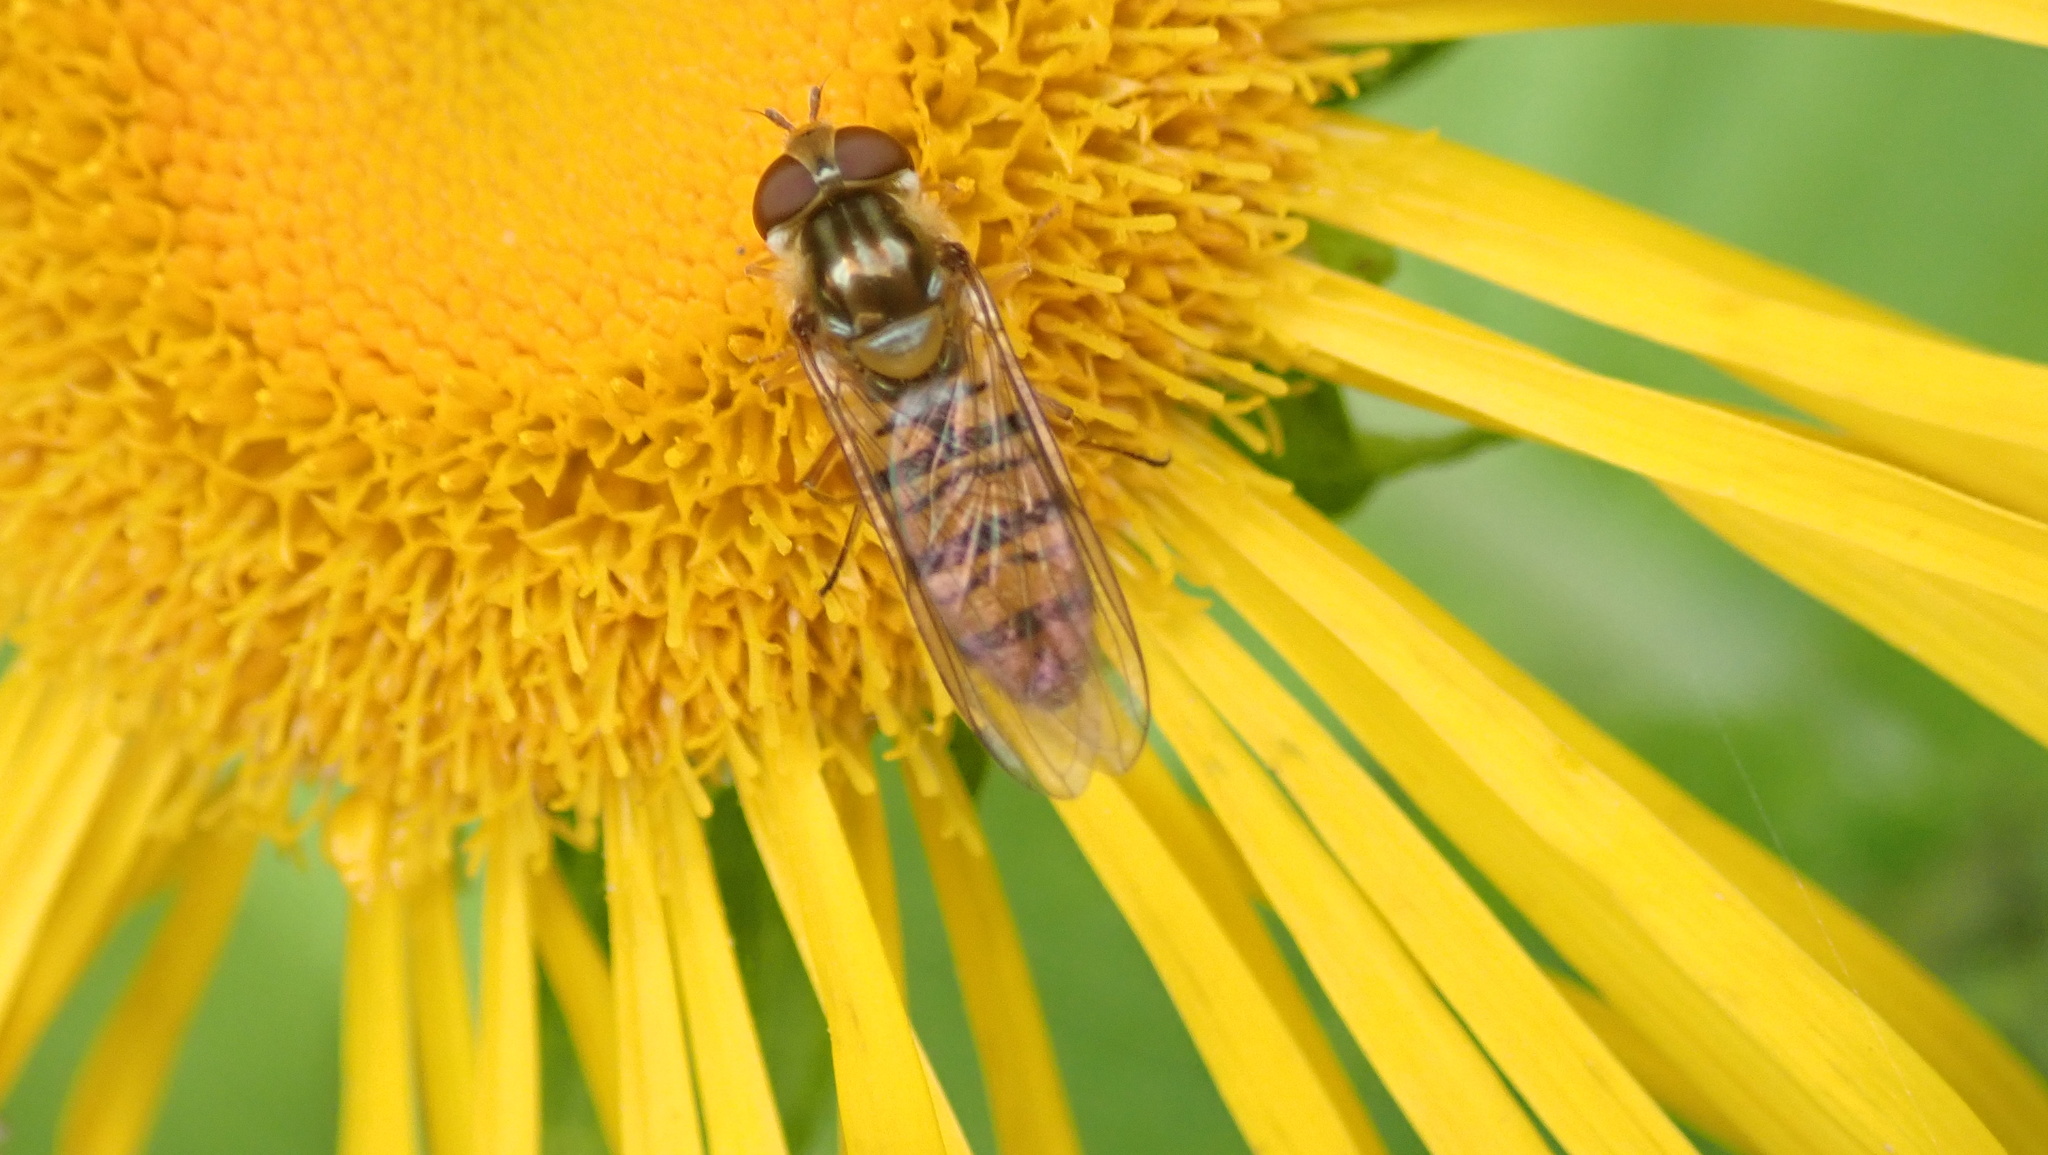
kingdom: Animalia
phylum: Arthropoda
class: Insecta
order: Diptera
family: Syrphidae
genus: Episyrphus
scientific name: Episyrphus balteatus
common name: Marmalade hoverfly
